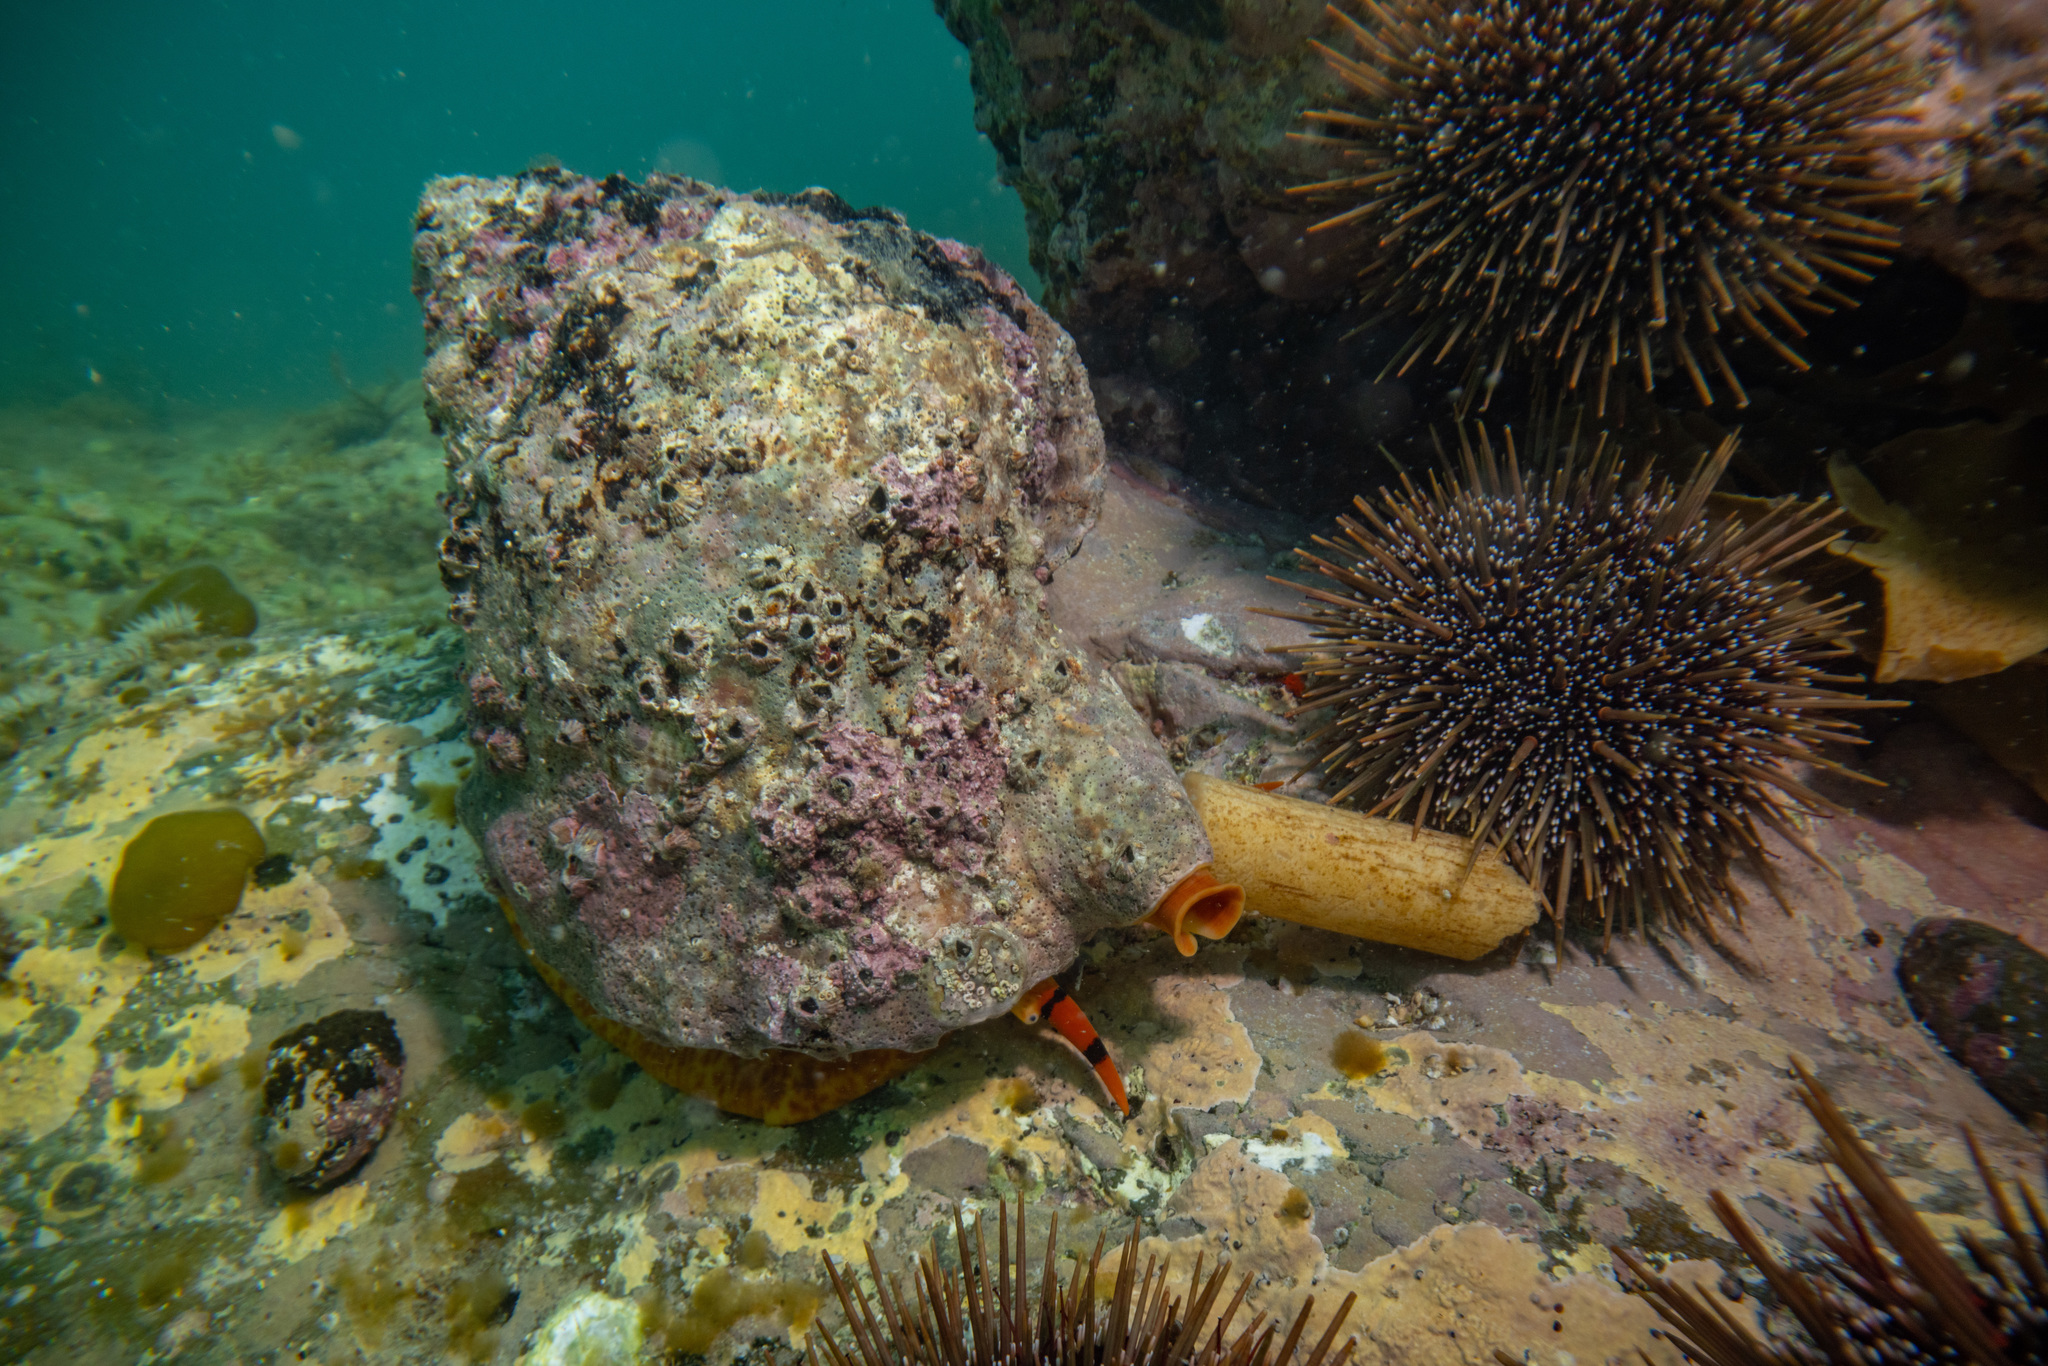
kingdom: Animalia
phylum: Mollusca
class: Gastropoda
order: Littorinimorpha
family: Charoniidae
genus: Charonia
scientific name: Charonia lampas
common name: Knobbed triton
